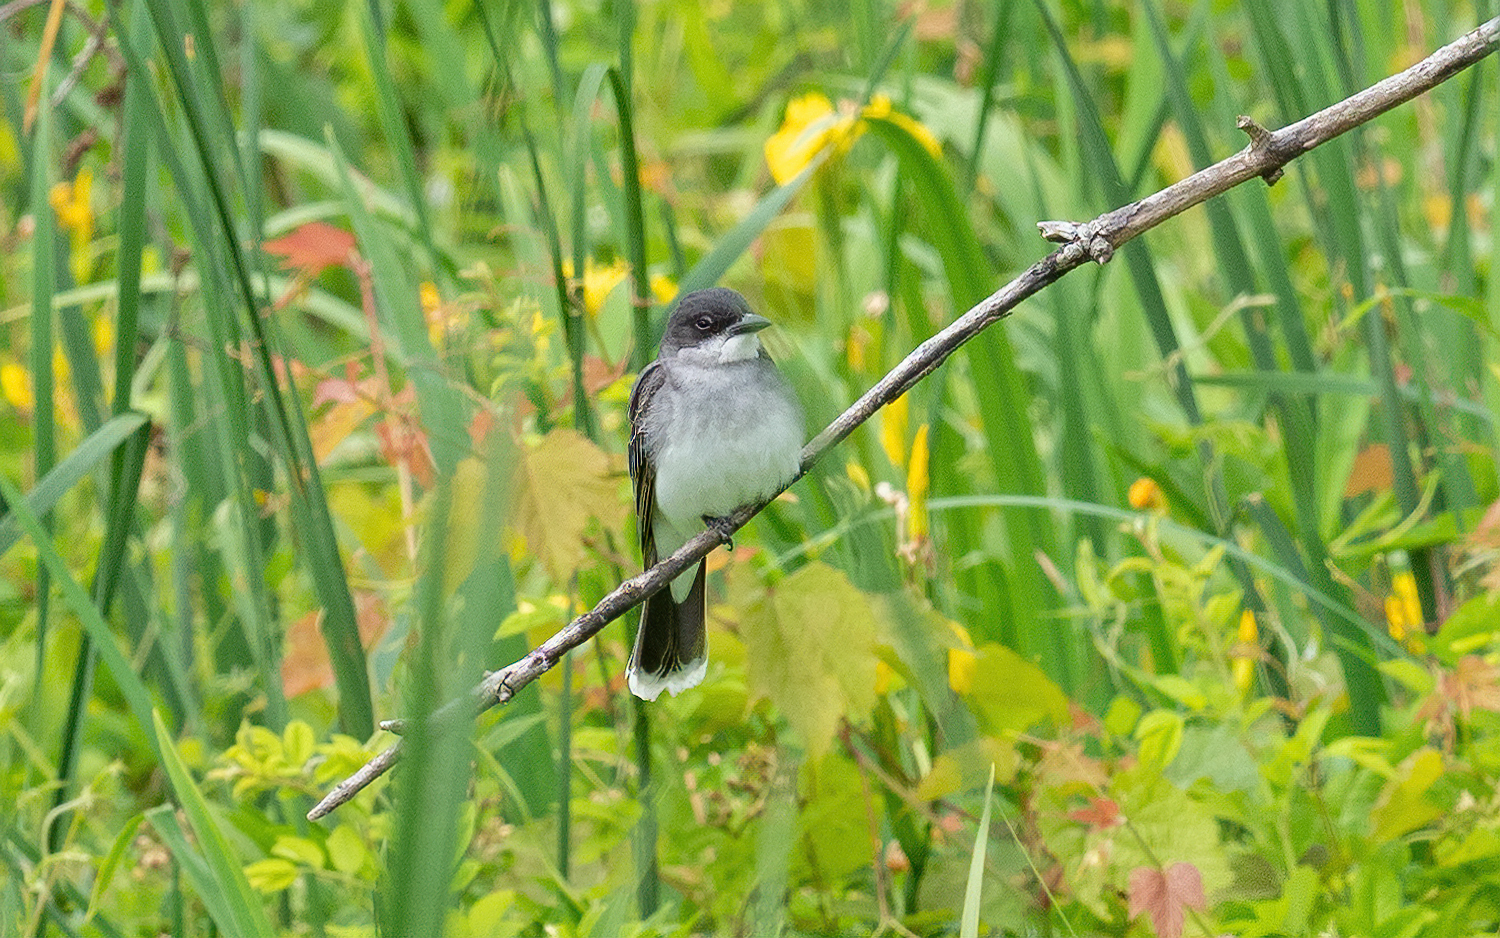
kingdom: Animalia
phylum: Chordata
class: Aves
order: Passeriformes
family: Tyrannidae
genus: Tyrannus
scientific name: Tyrannus tyrannus
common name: Eastern kingbird
